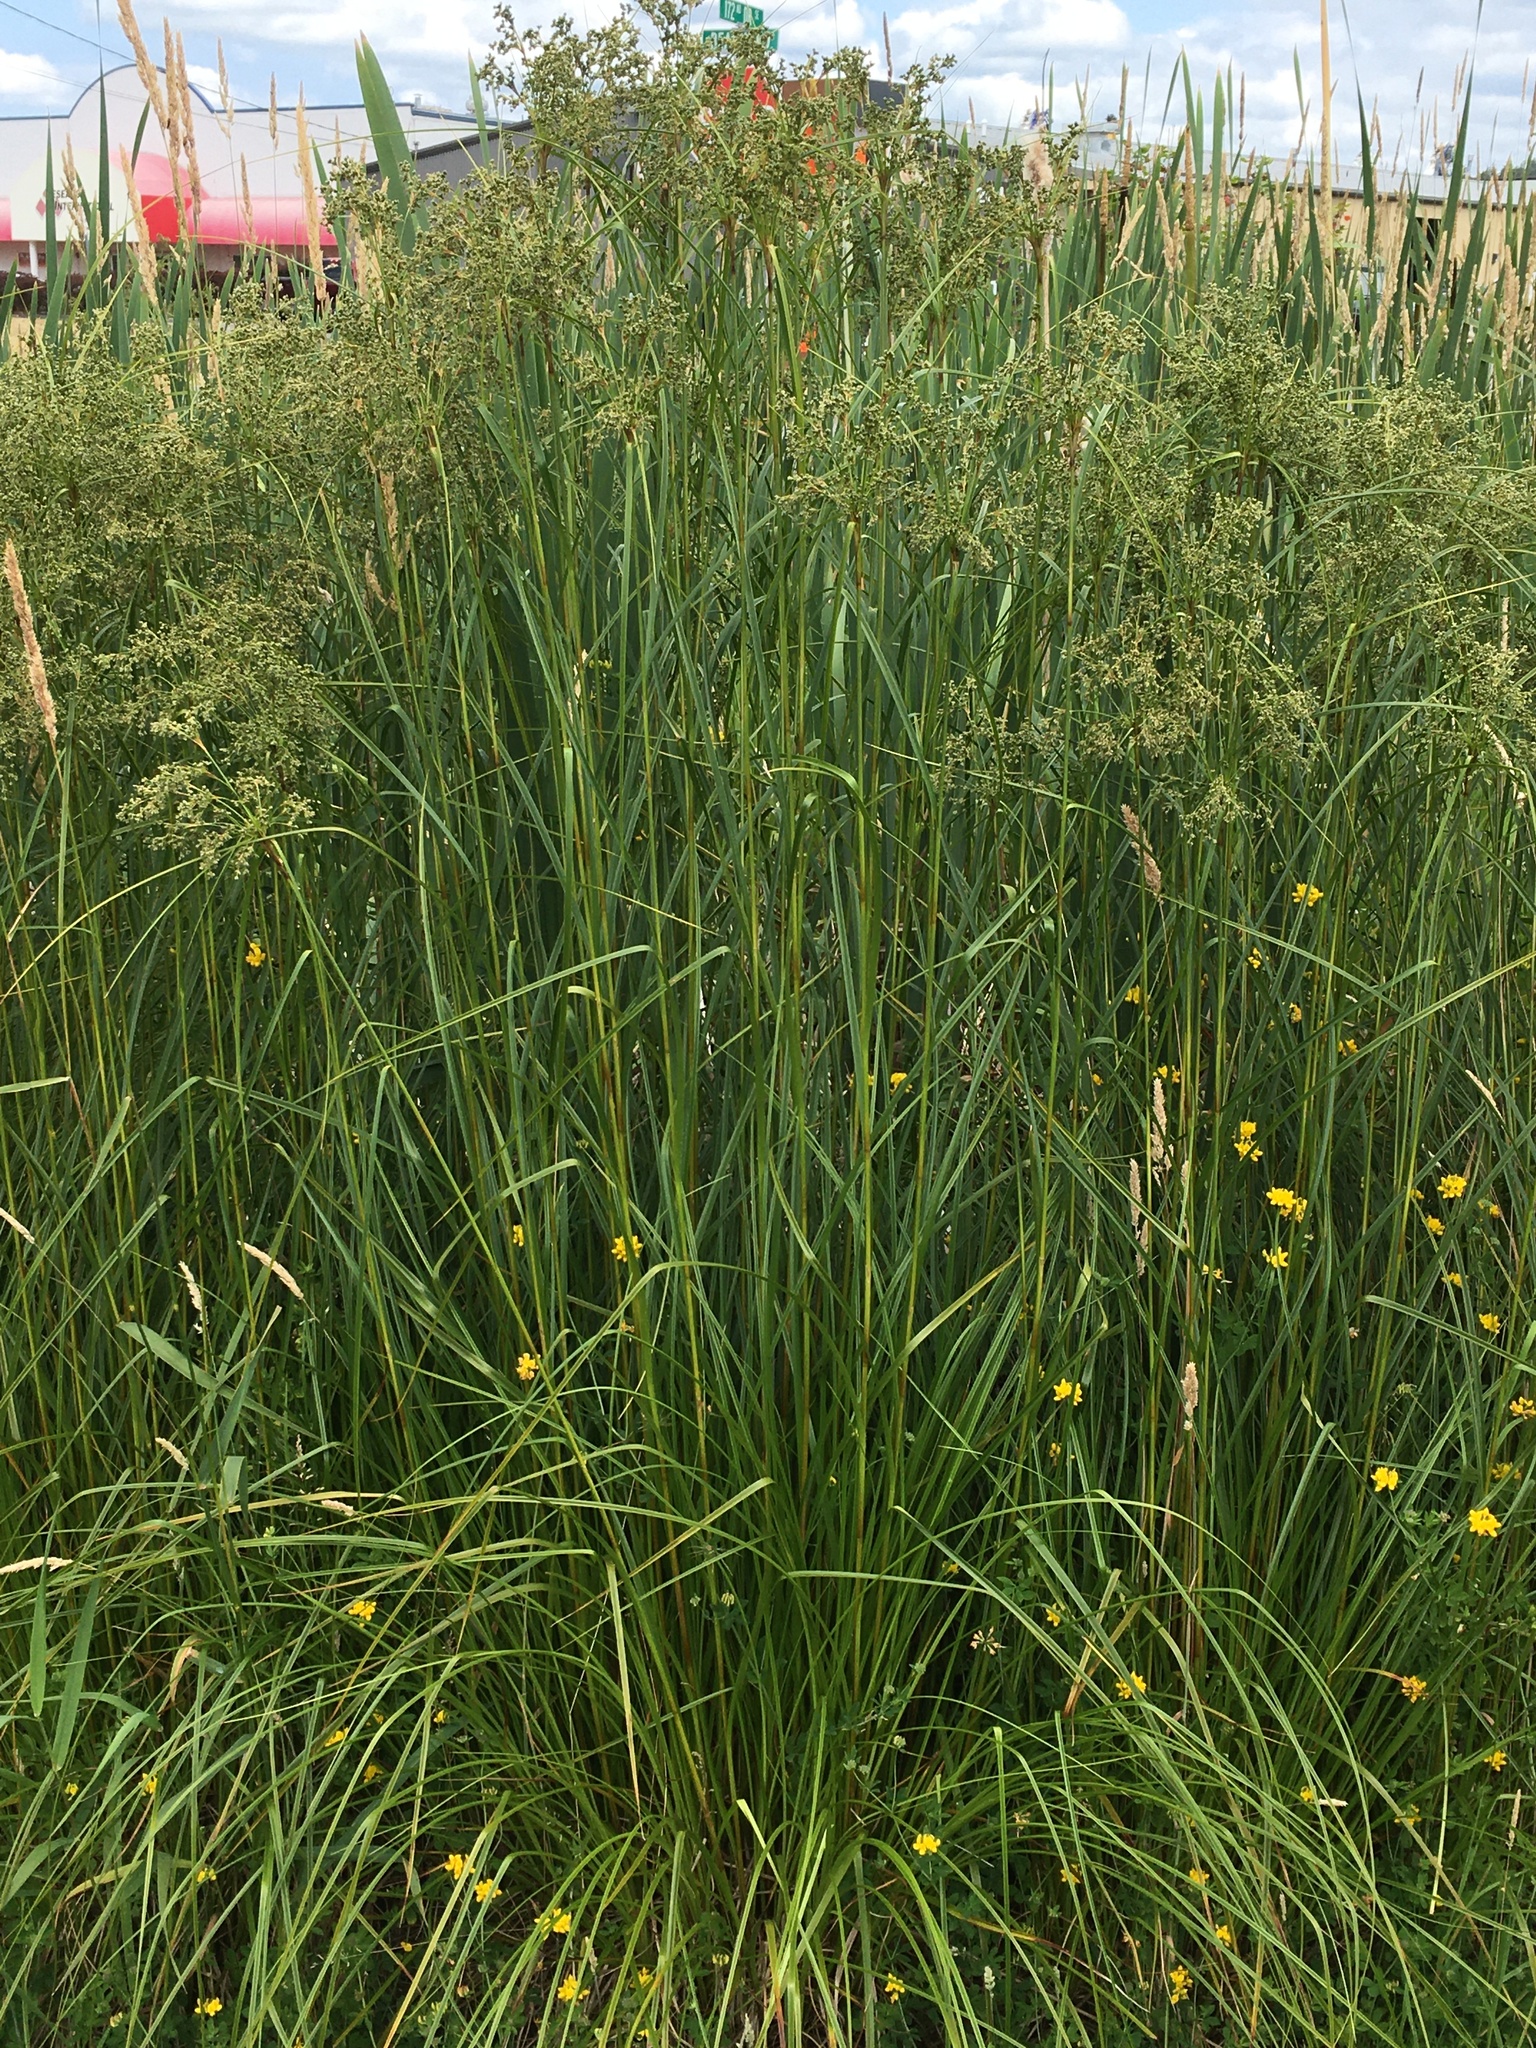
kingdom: Plantae
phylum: Tracheophyta
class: Liliopsida
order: Poales
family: Cyperaceae
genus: Scirpus
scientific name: Scirpus microcarpus
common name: Panicled bulrush
